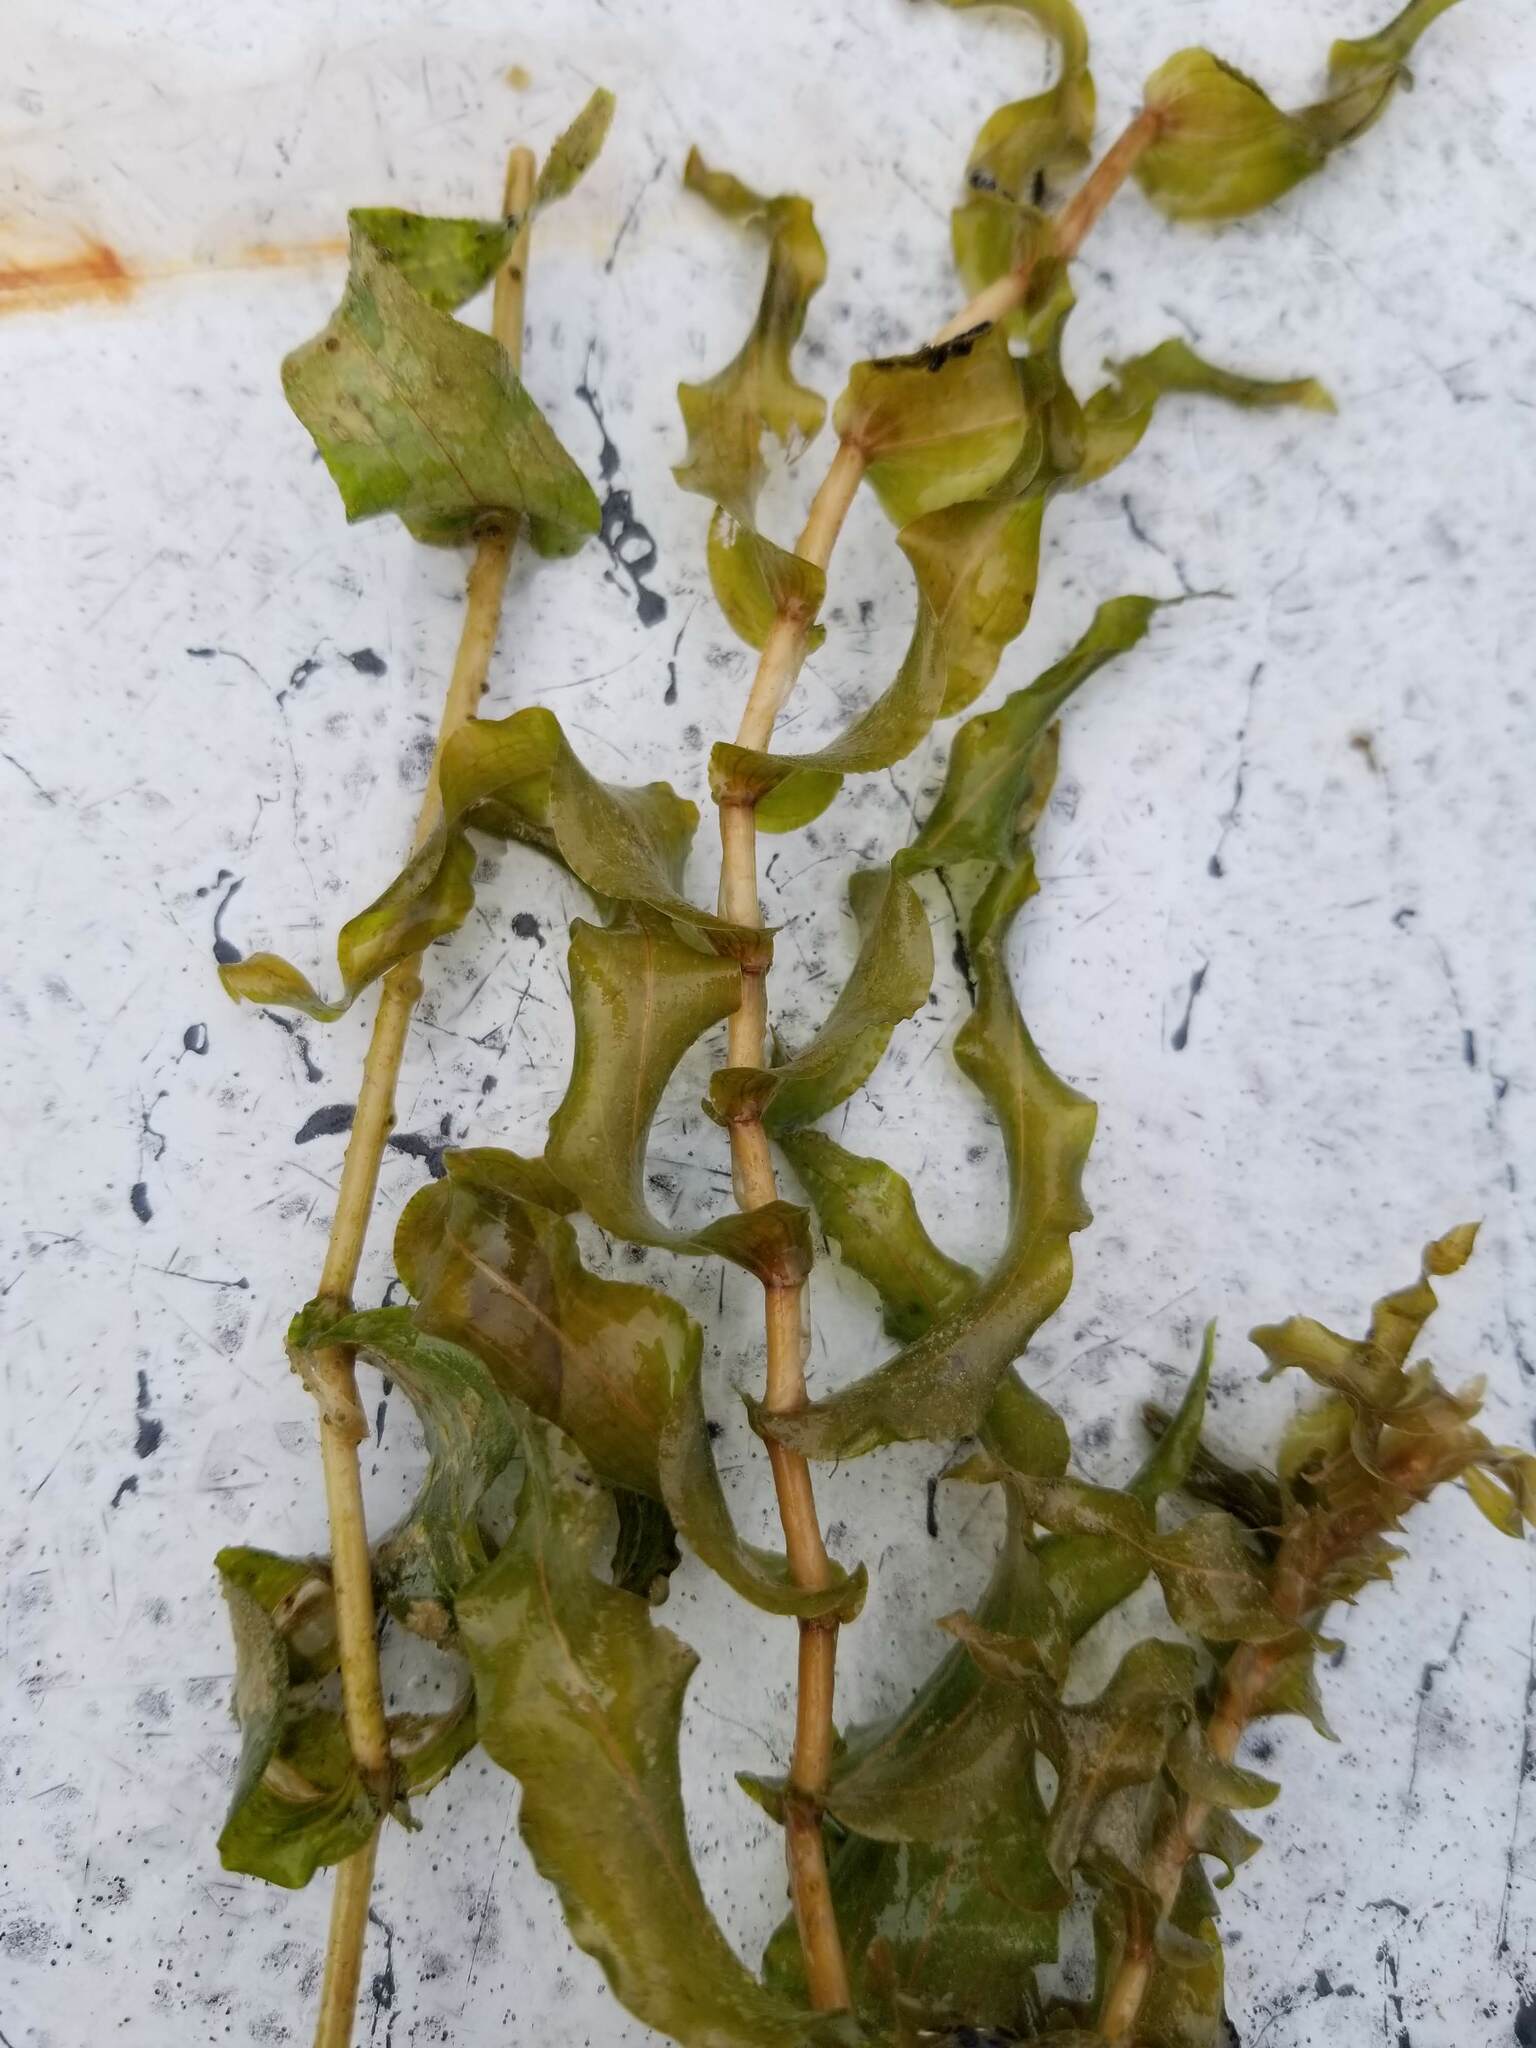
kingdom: Plantae
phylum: Tracheophyta
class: Liliopsida
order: Alismatales
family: Potamogetonaceae
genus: Potamogeton
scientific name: Potamogeton richardsonii
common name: Richardson's pondweed
